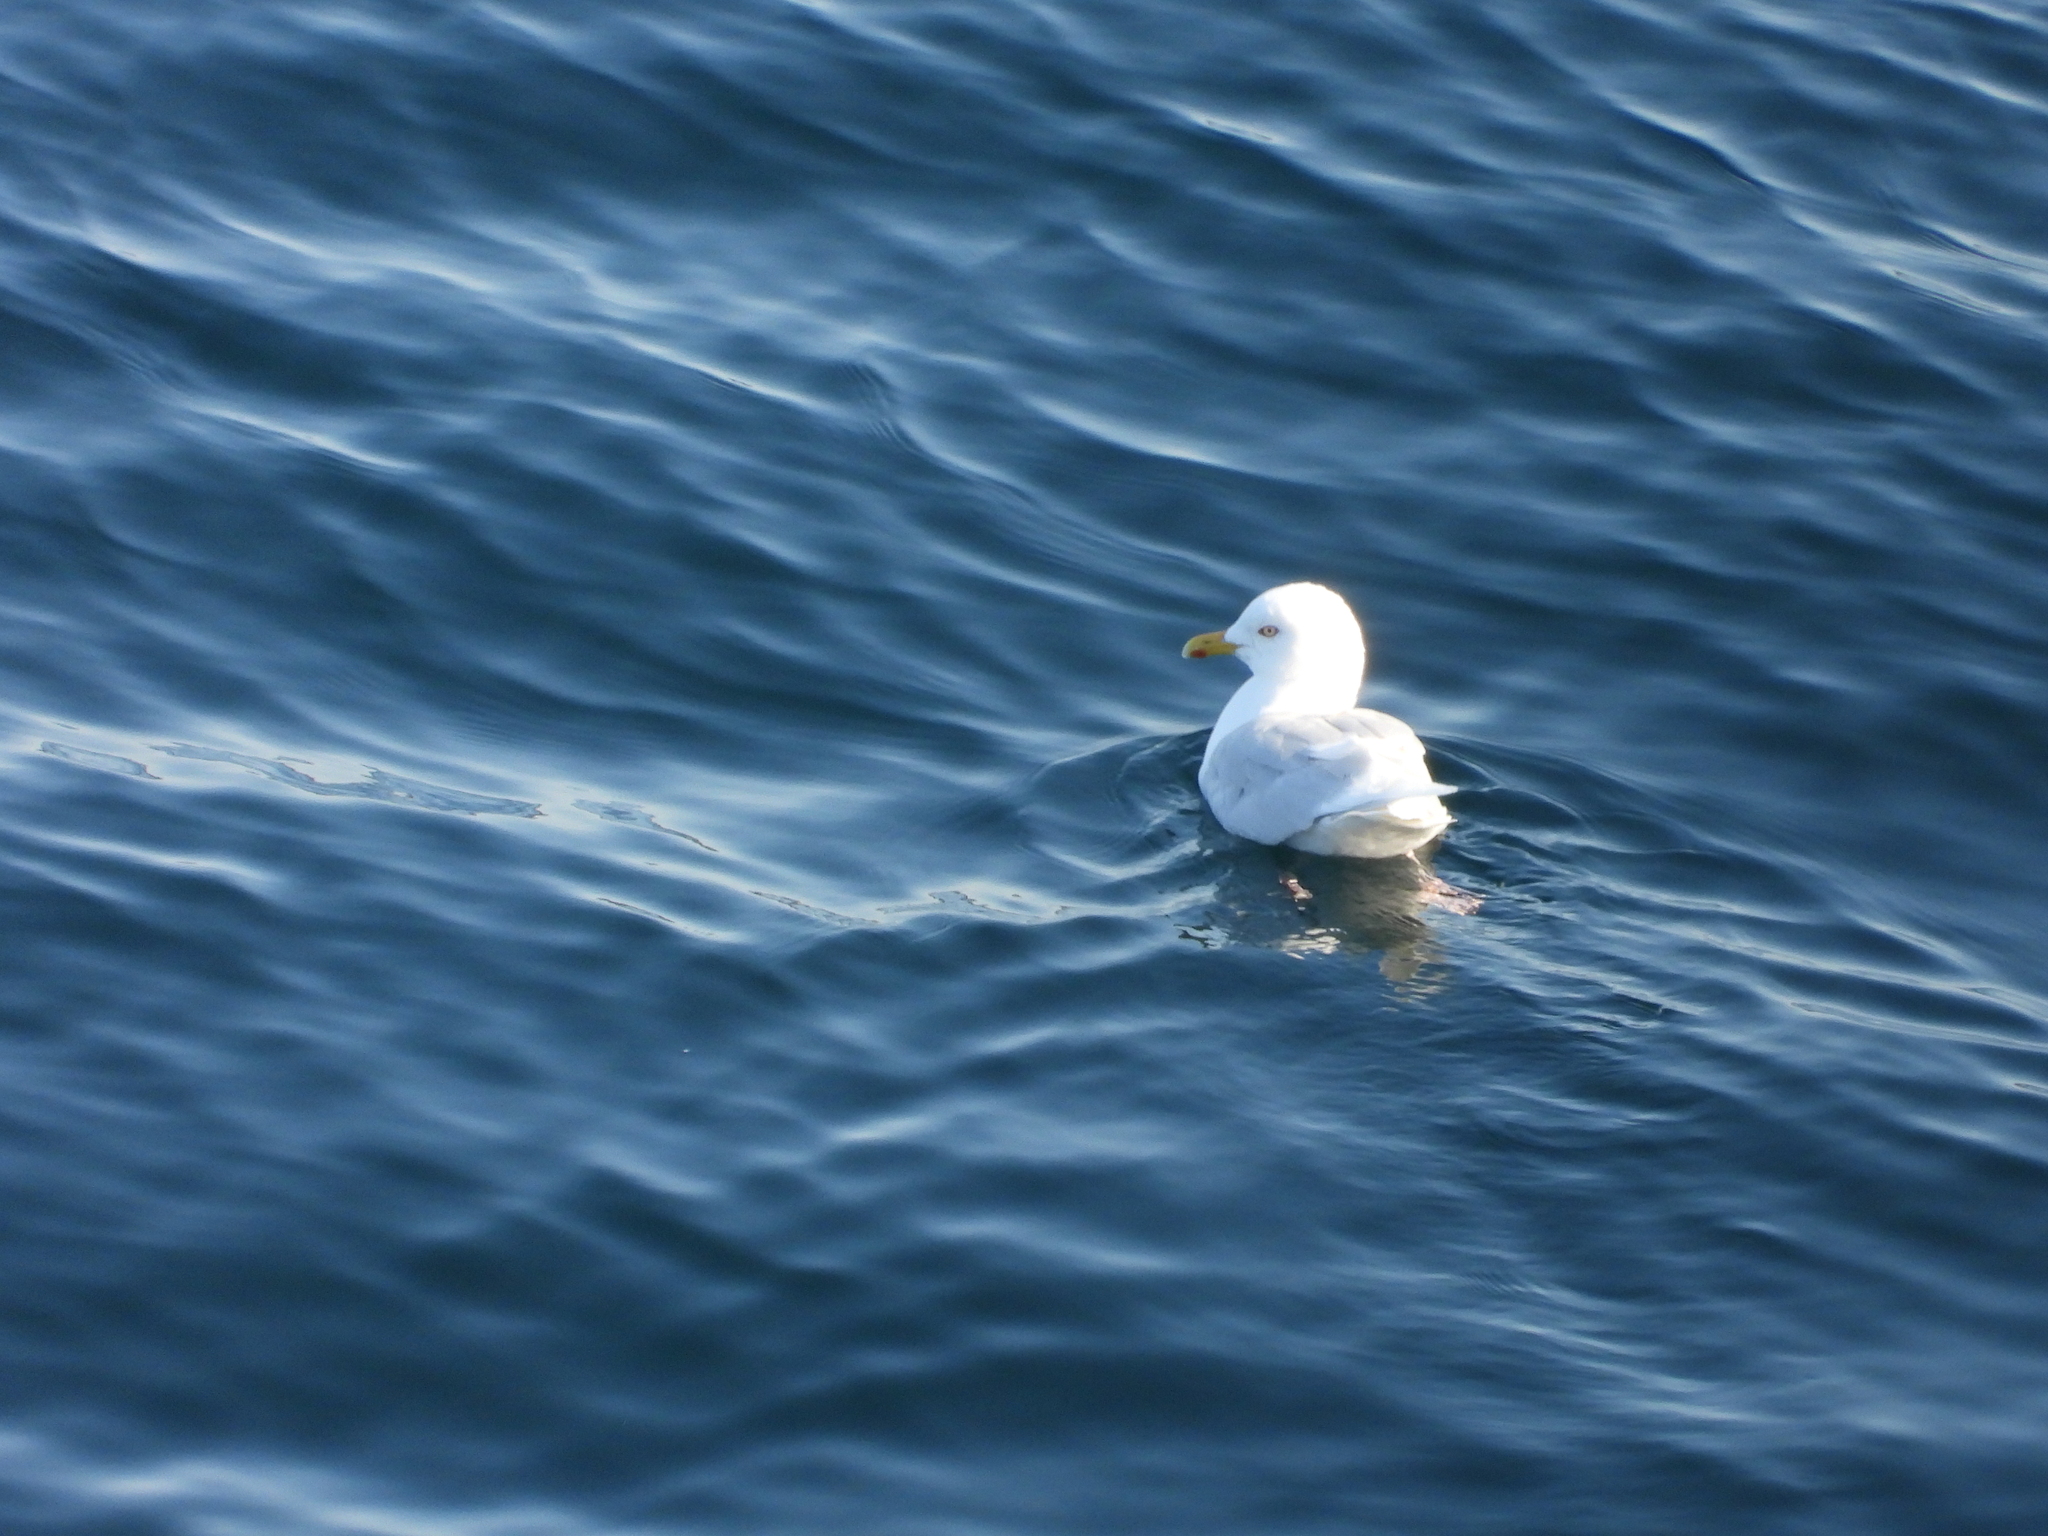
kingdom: Animalia
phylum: Chordata
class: Aves
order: Charadriiformes
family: Laridae
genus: Larus
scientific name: Larus glaucoides
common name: Iceland gull
